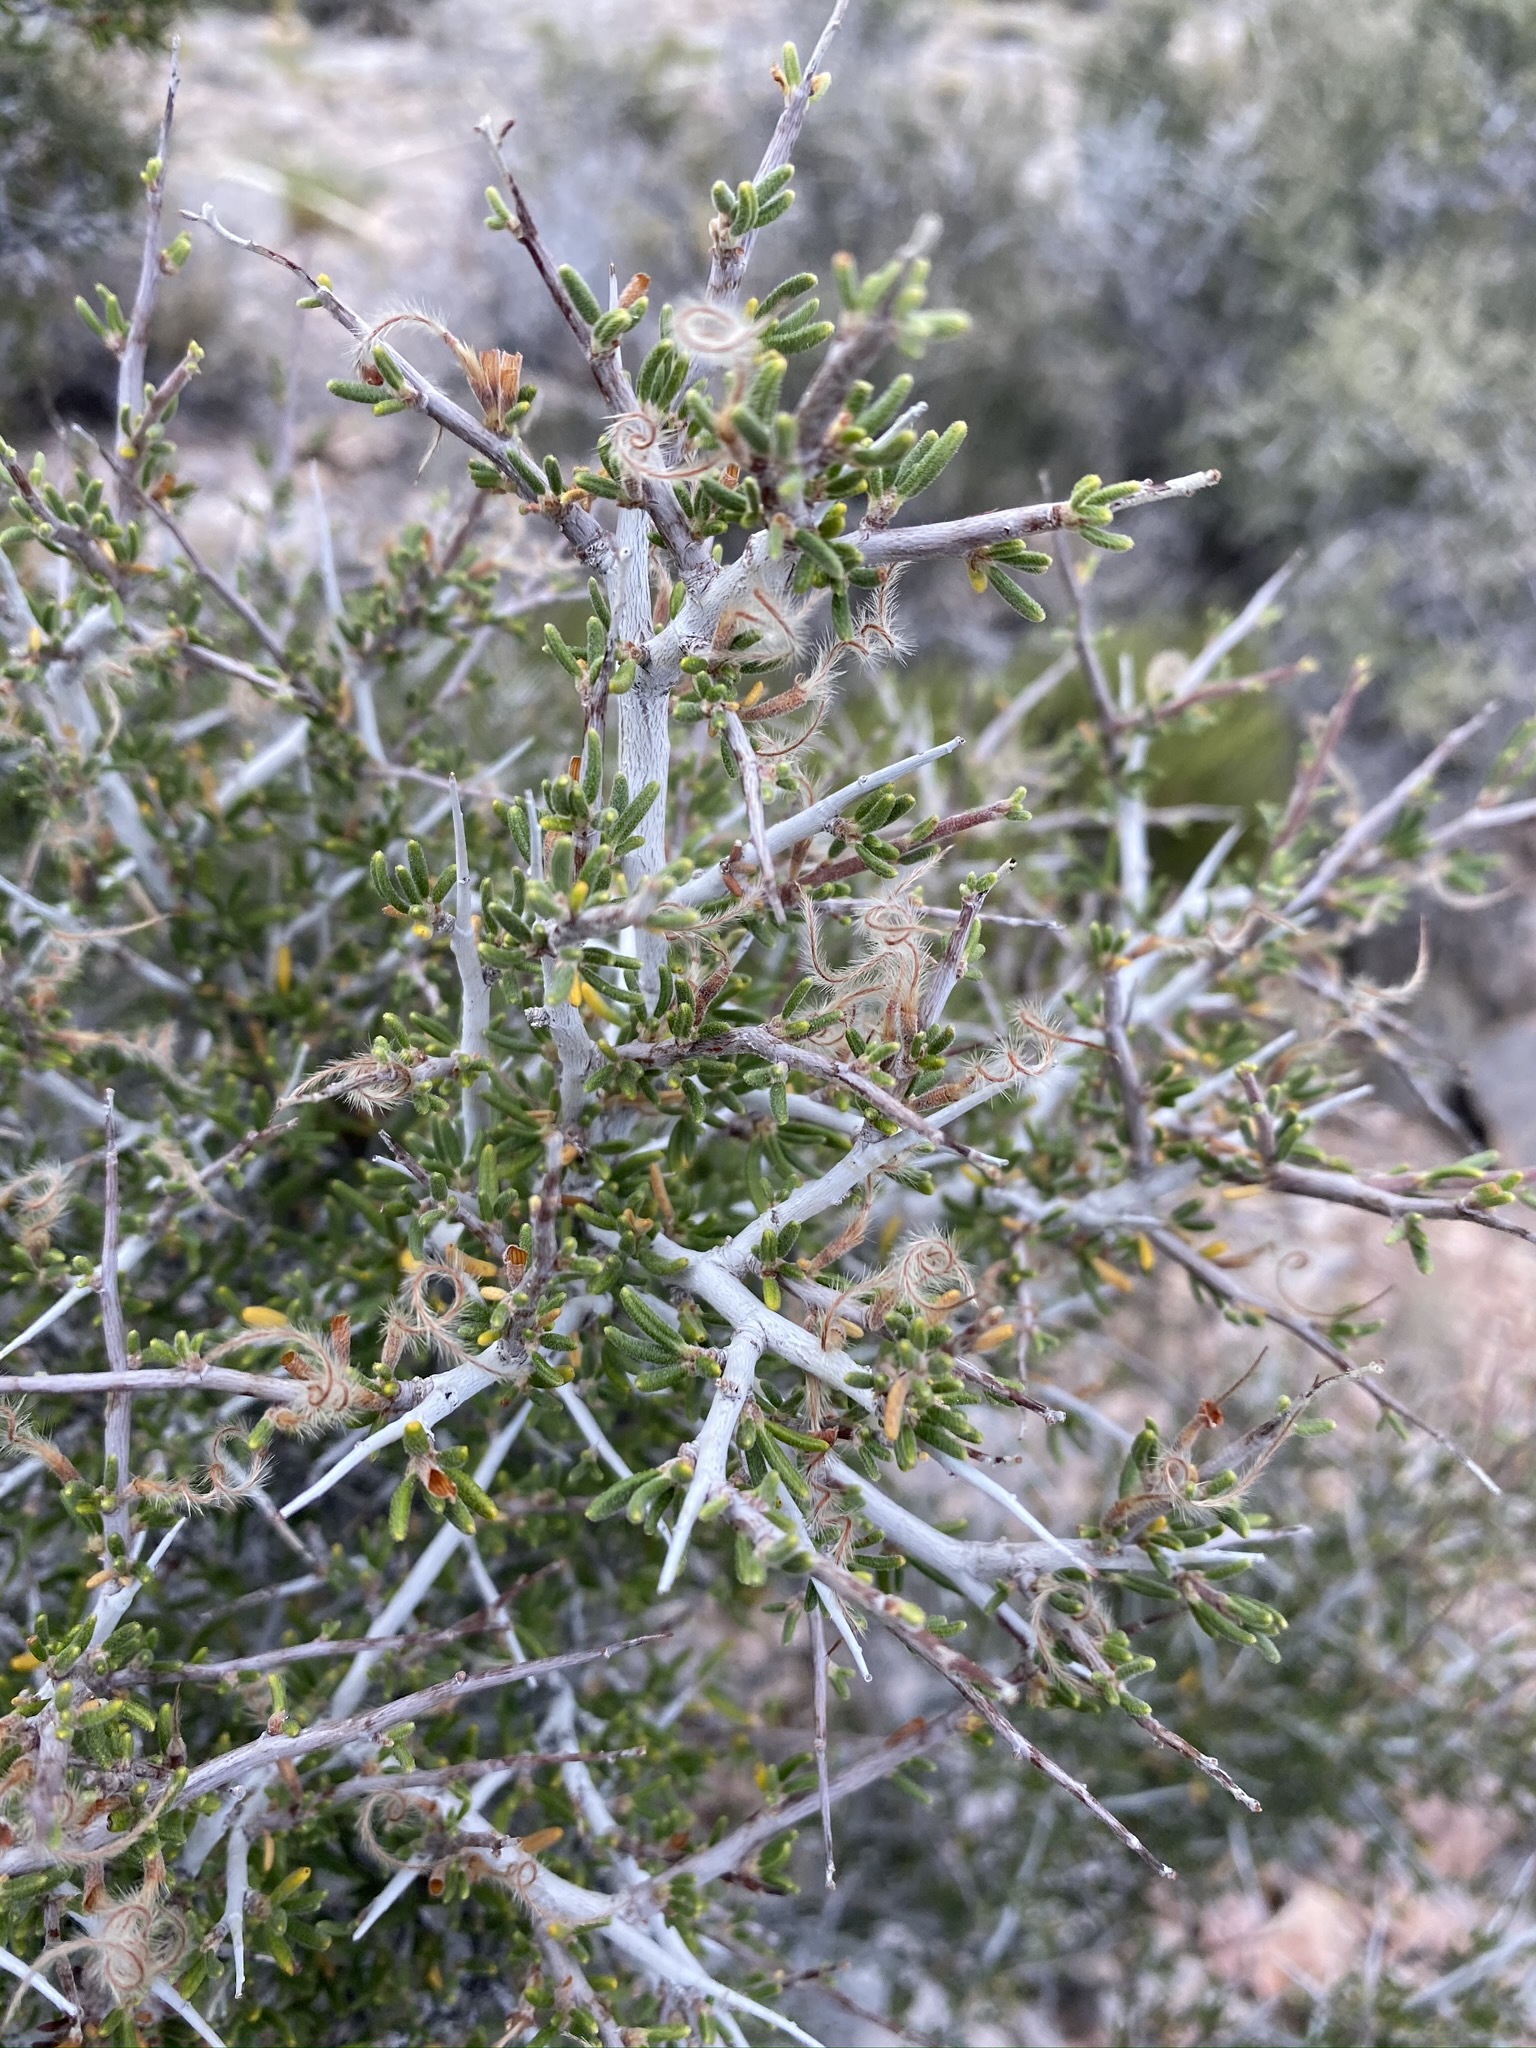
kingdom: Plantae
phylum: Tracheophyta
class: Magnoliopsida
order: Rosales
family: Rosaceae
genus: Cercocarpus
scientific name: Cercocarpus intricatus
